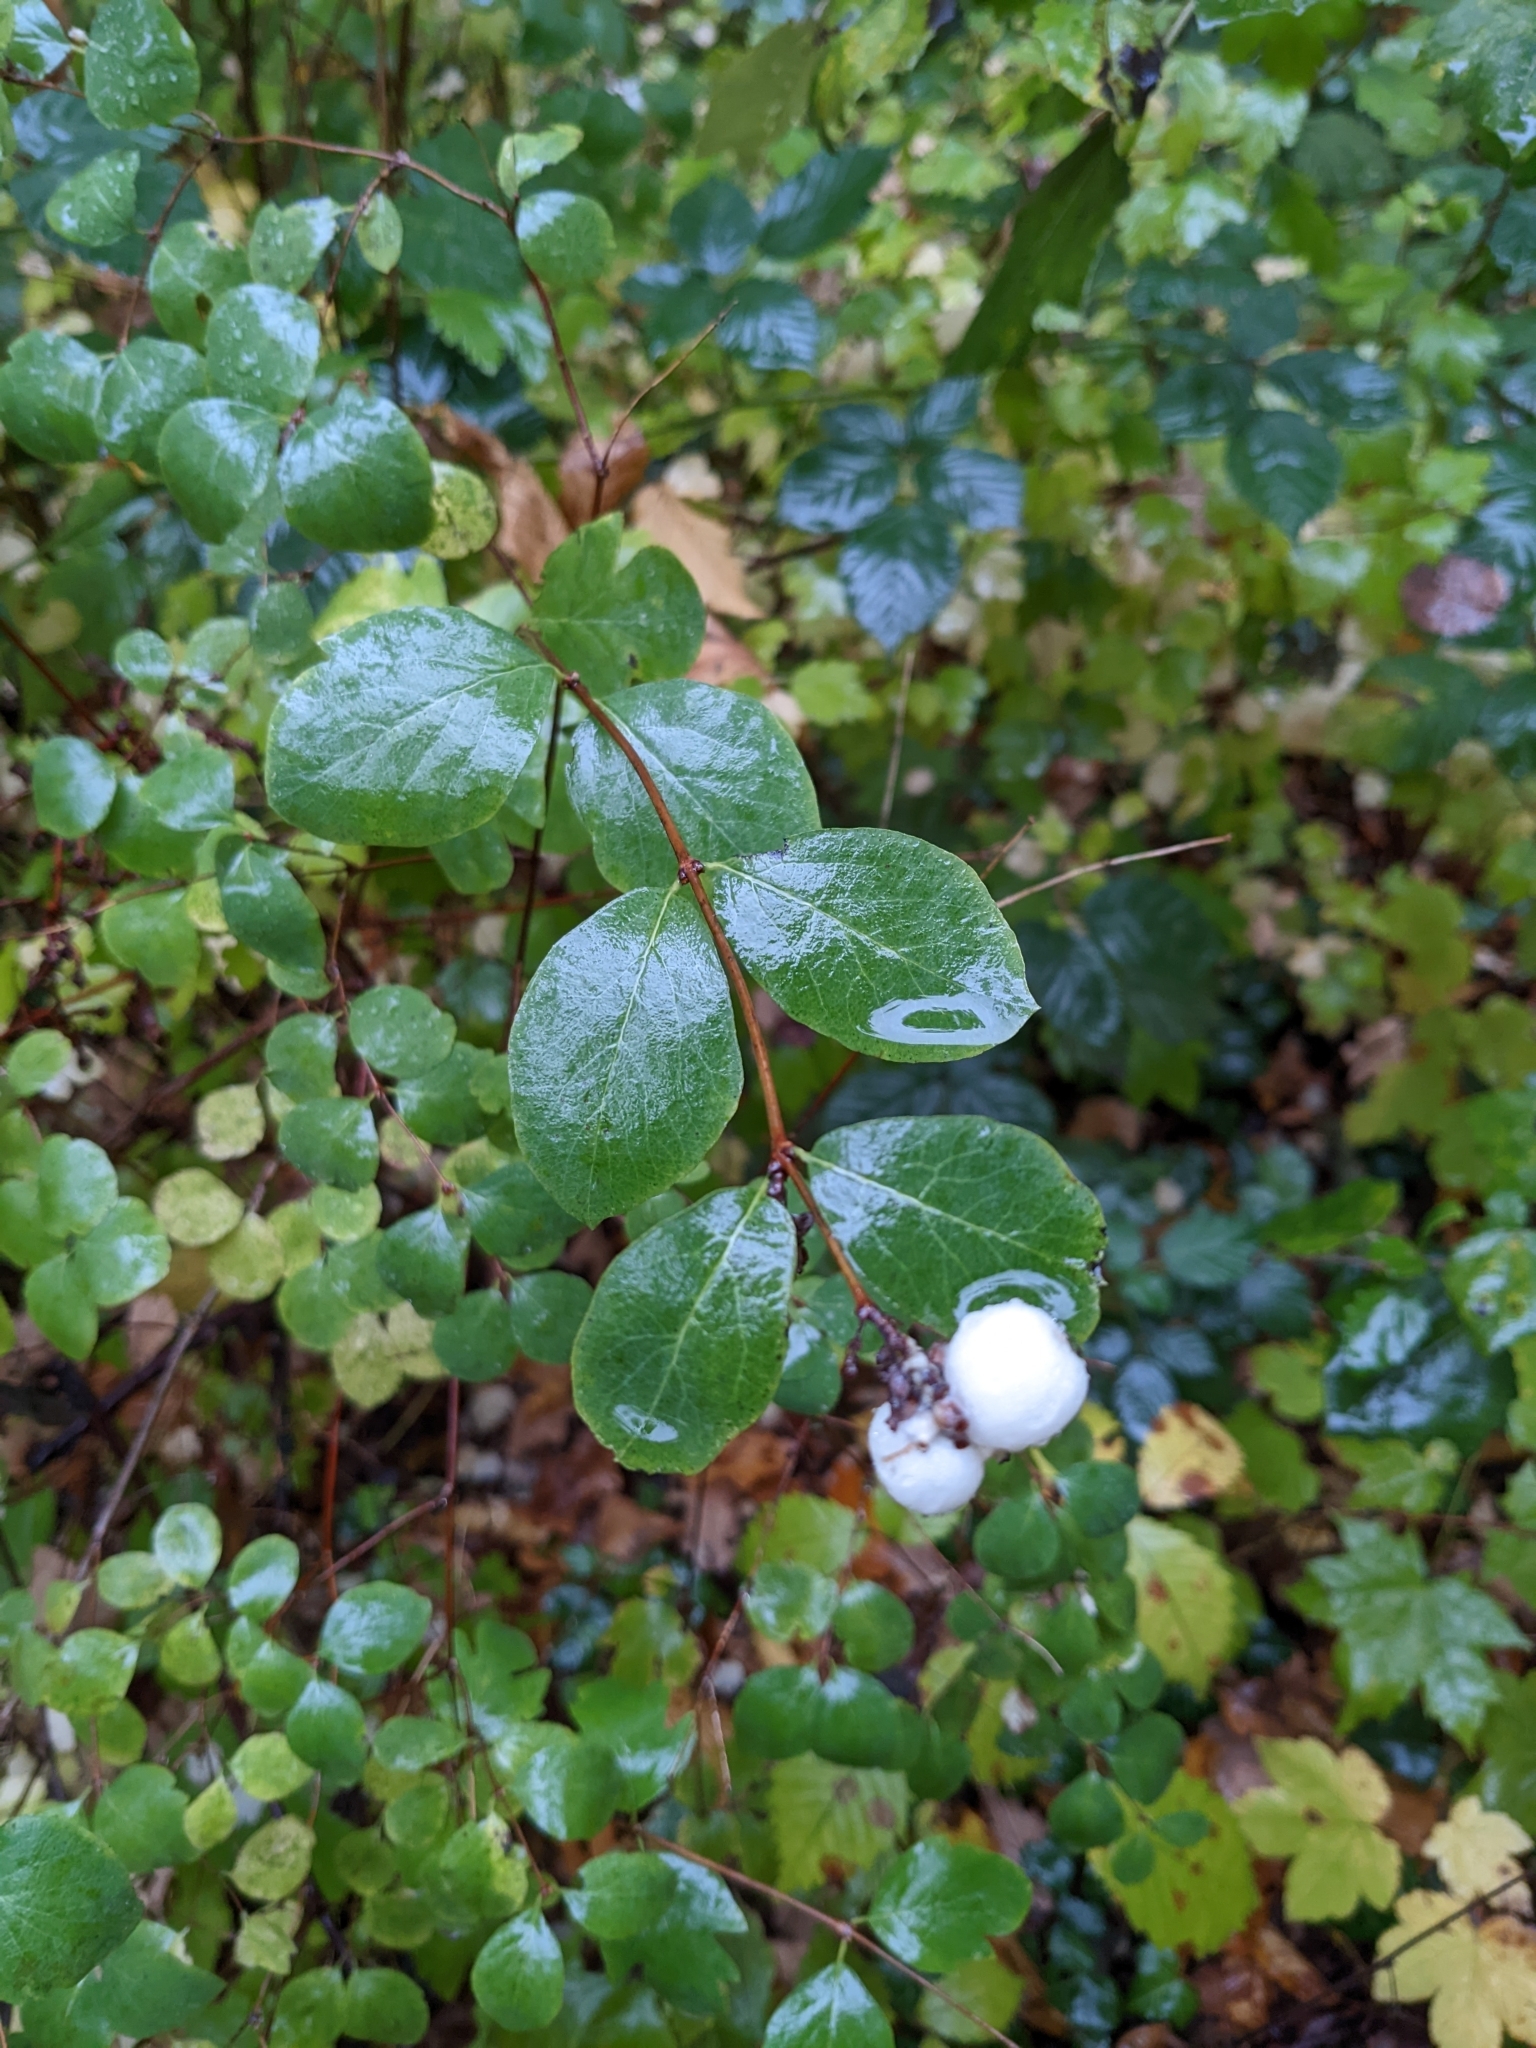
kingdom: Plantae
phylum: Tracheophyta
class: Magnoliopsida
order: Dipsacales
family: Caprifoliaceae
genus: Symphoricarpos
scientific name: Symphoricarpos albus
